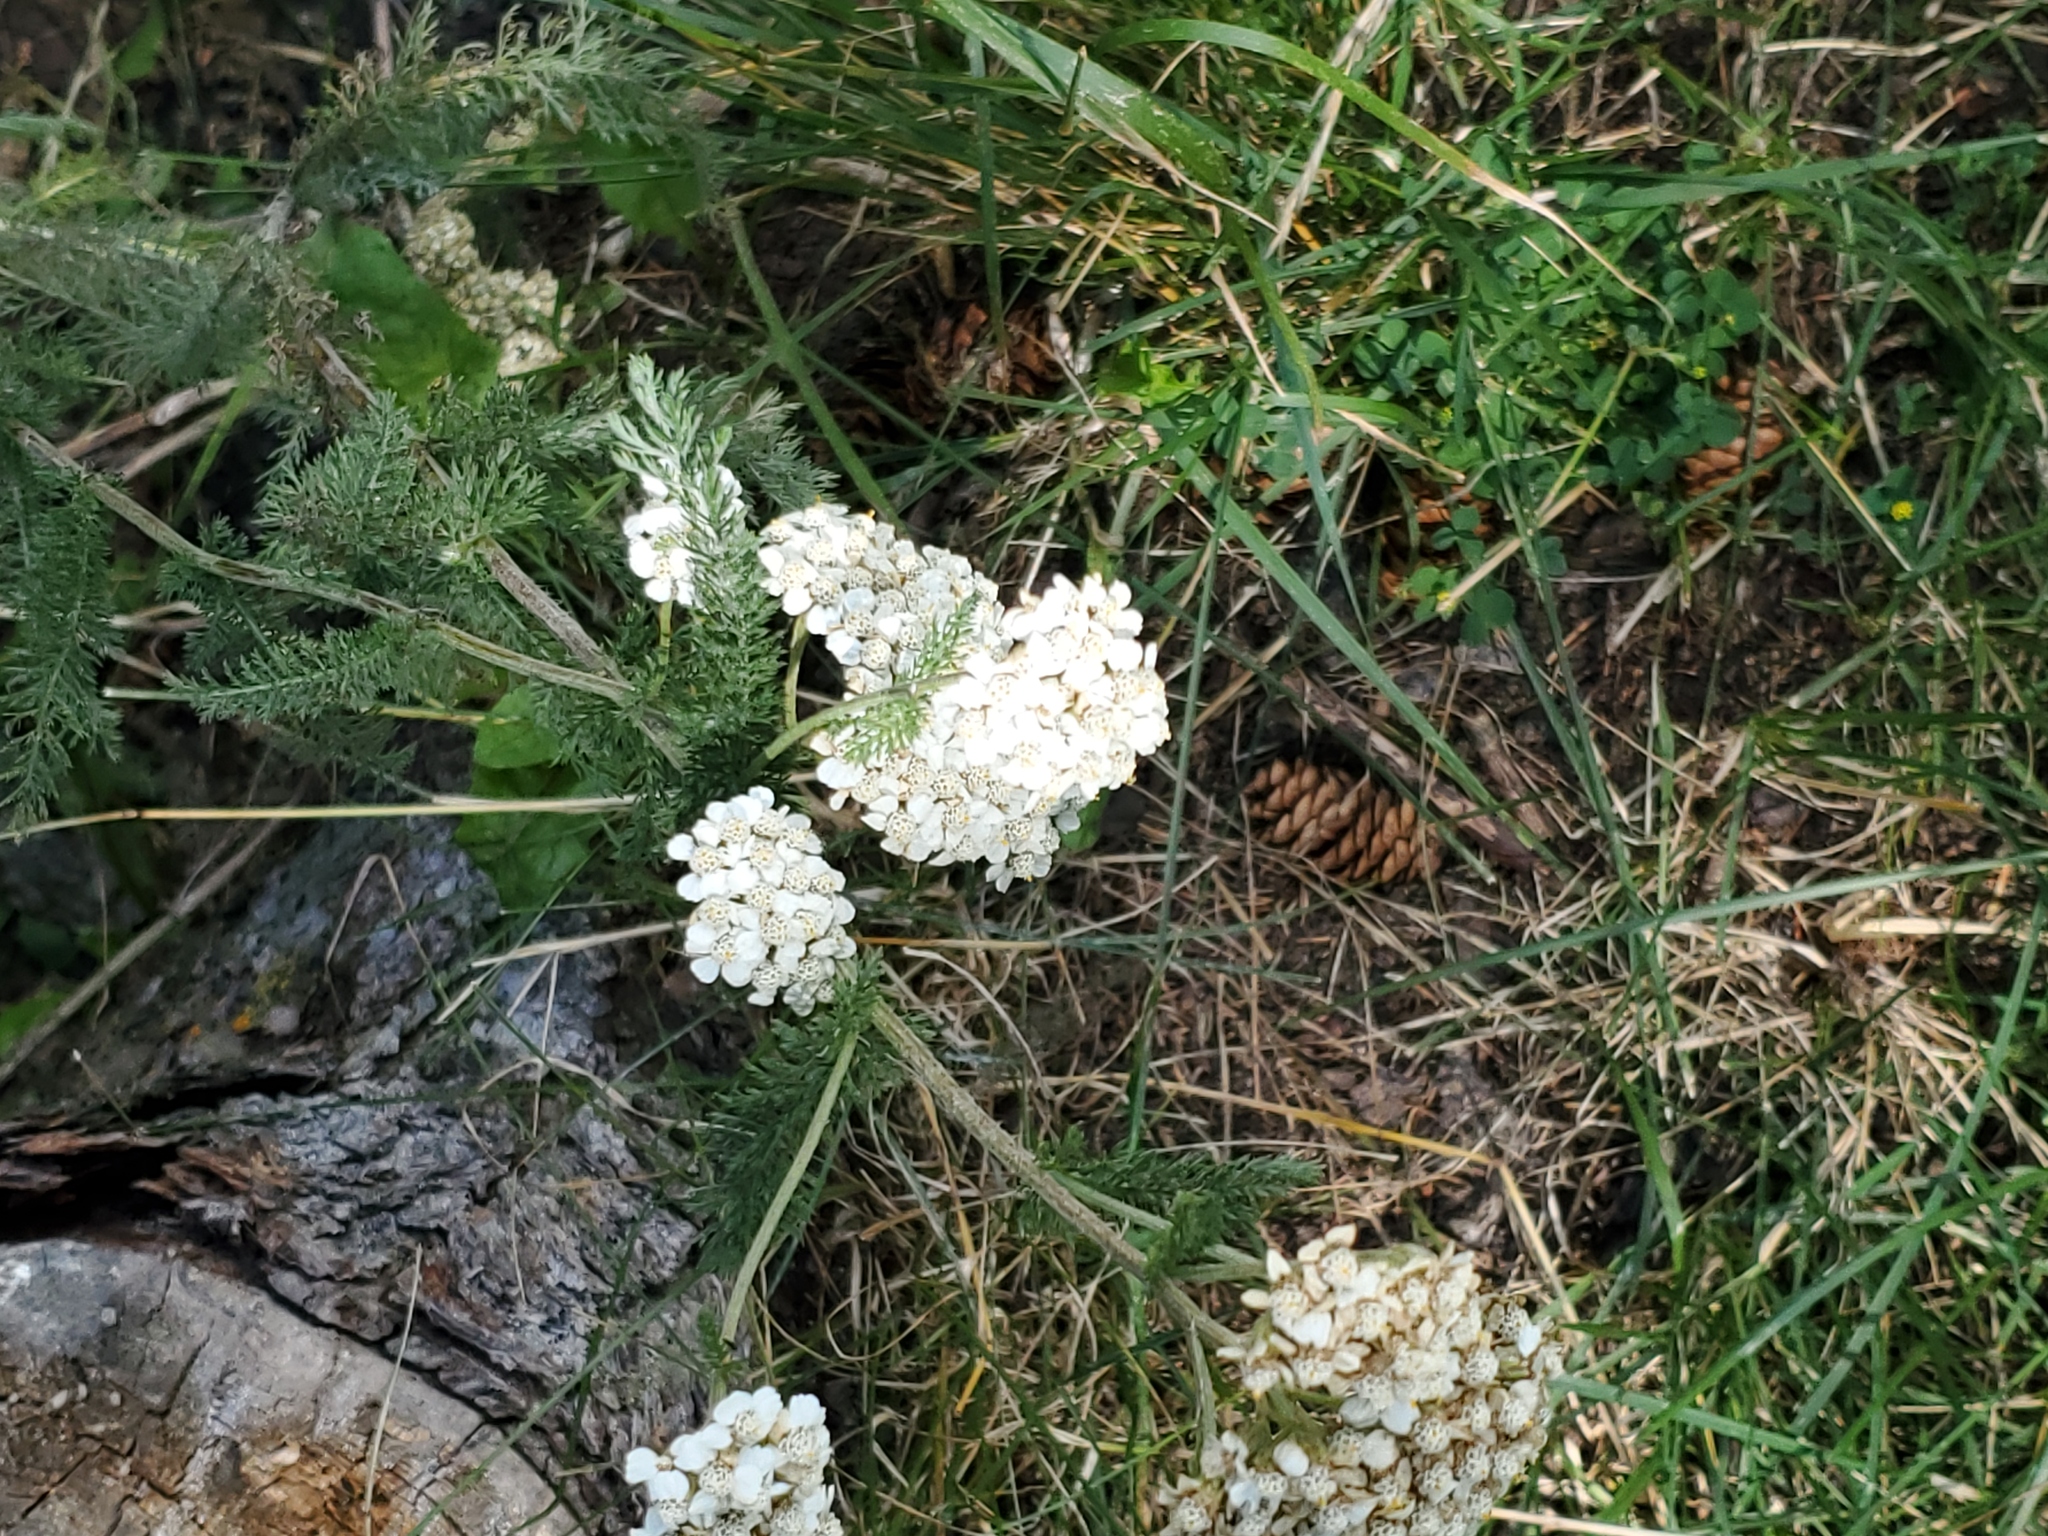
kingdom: Plantae
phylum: Tracheophyta
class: Magnoliopsida
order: Asterales
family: Asteraceae
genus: Achillea
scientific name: Achillea millefolium
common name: Yarrow
